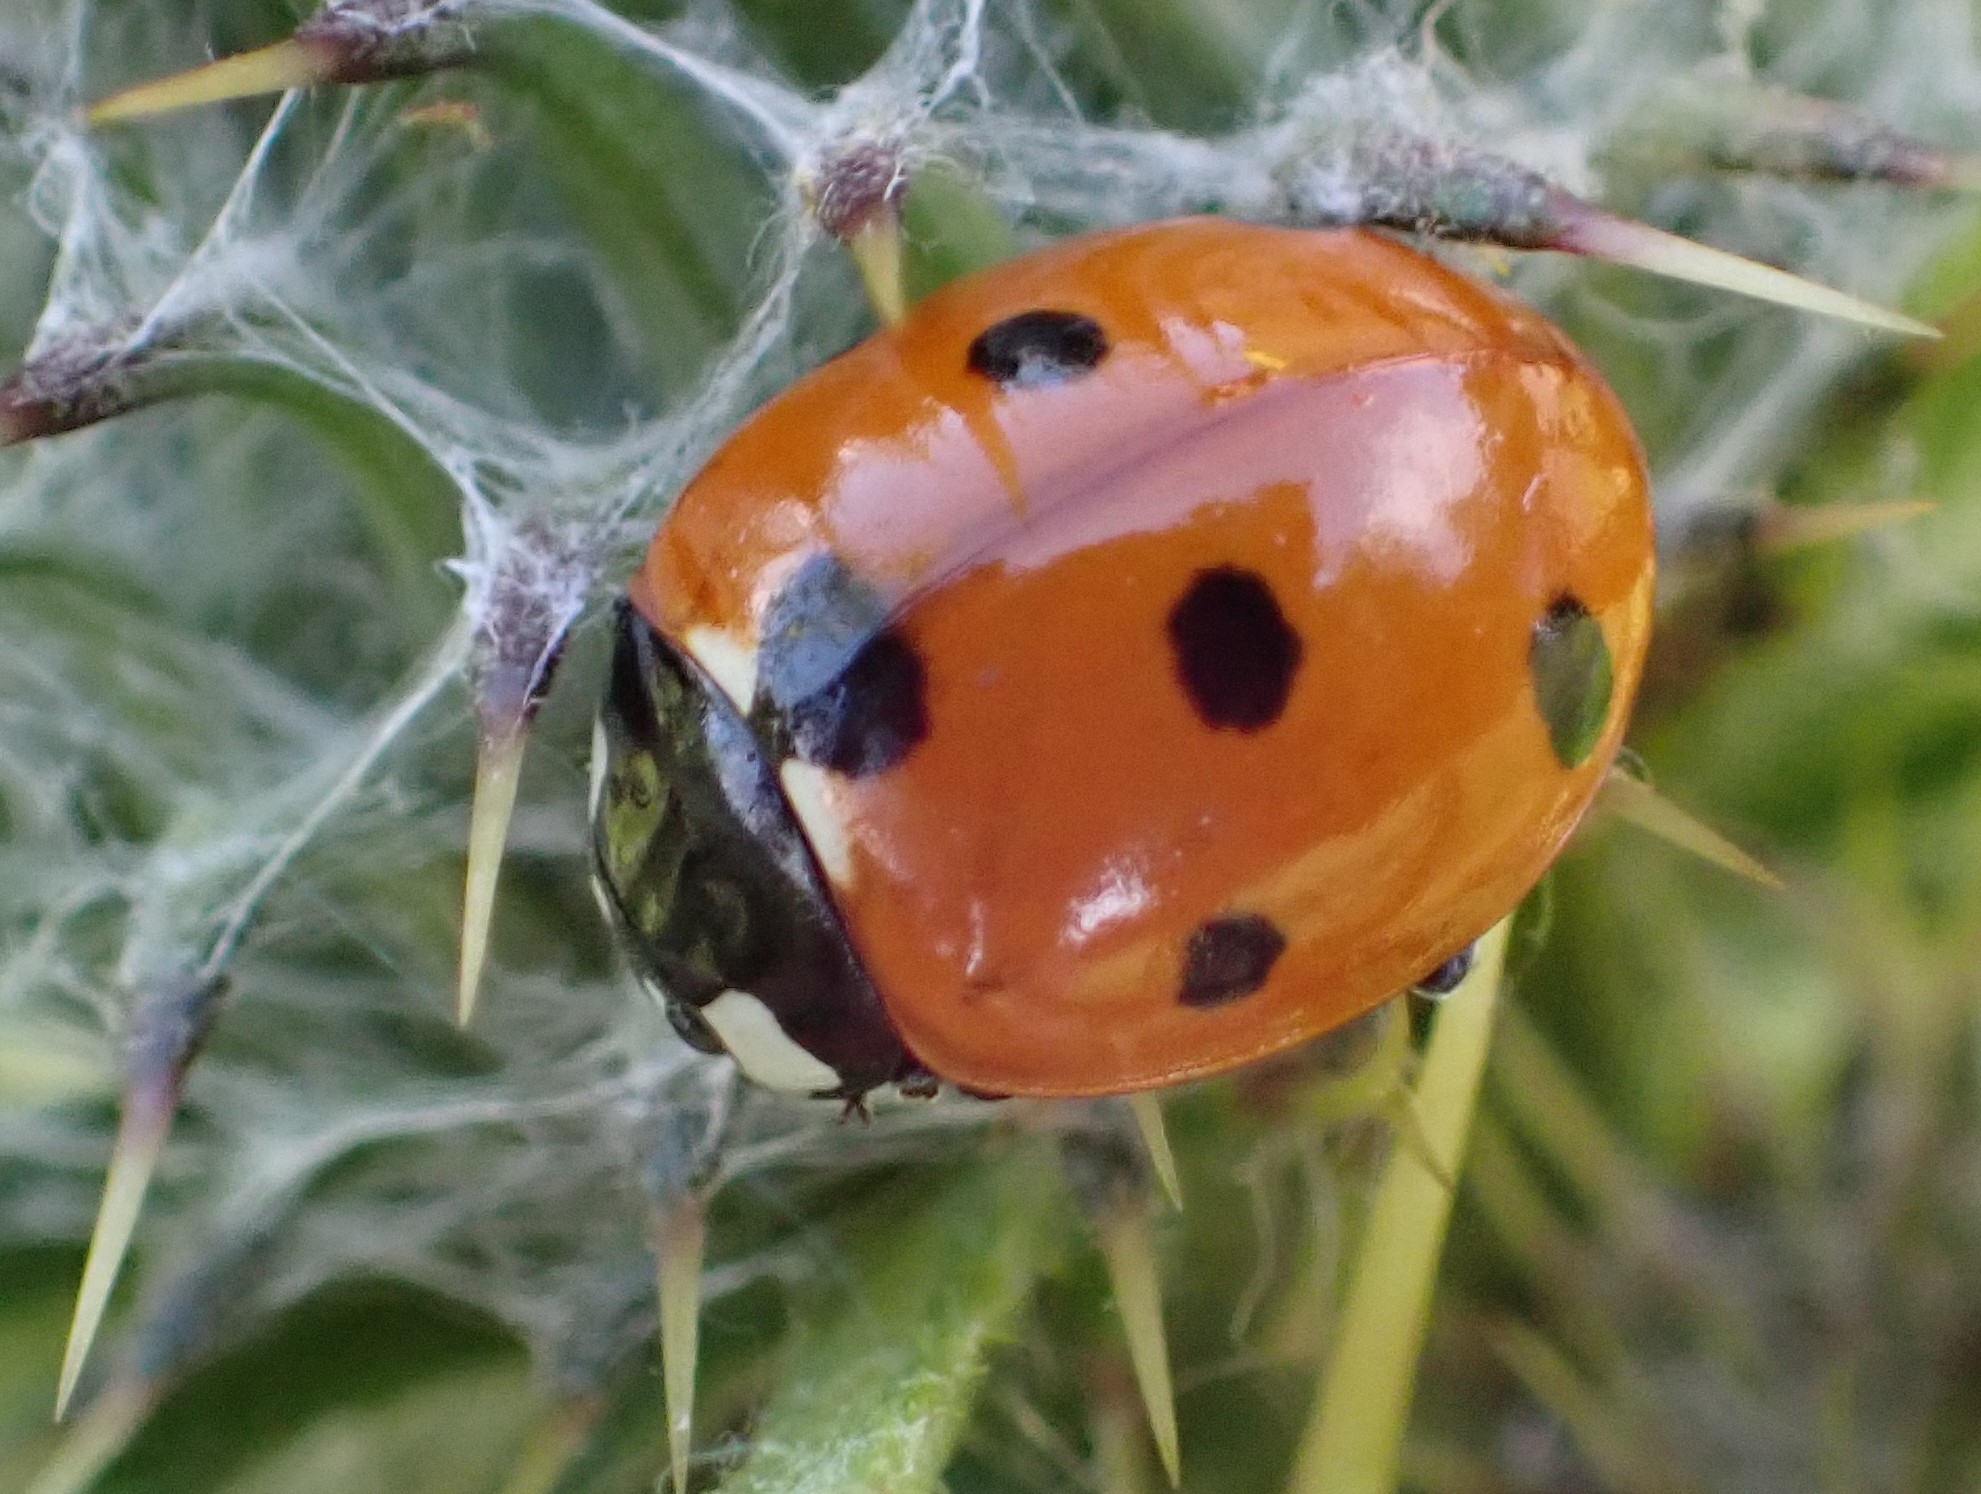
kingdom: Animalia
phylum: Arthropoda
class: Insecta
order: Coleoptera
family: Coccinellidae
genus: Coccinella
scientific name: Coccinella septempunctata
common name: Sevenspotted lady beetle
